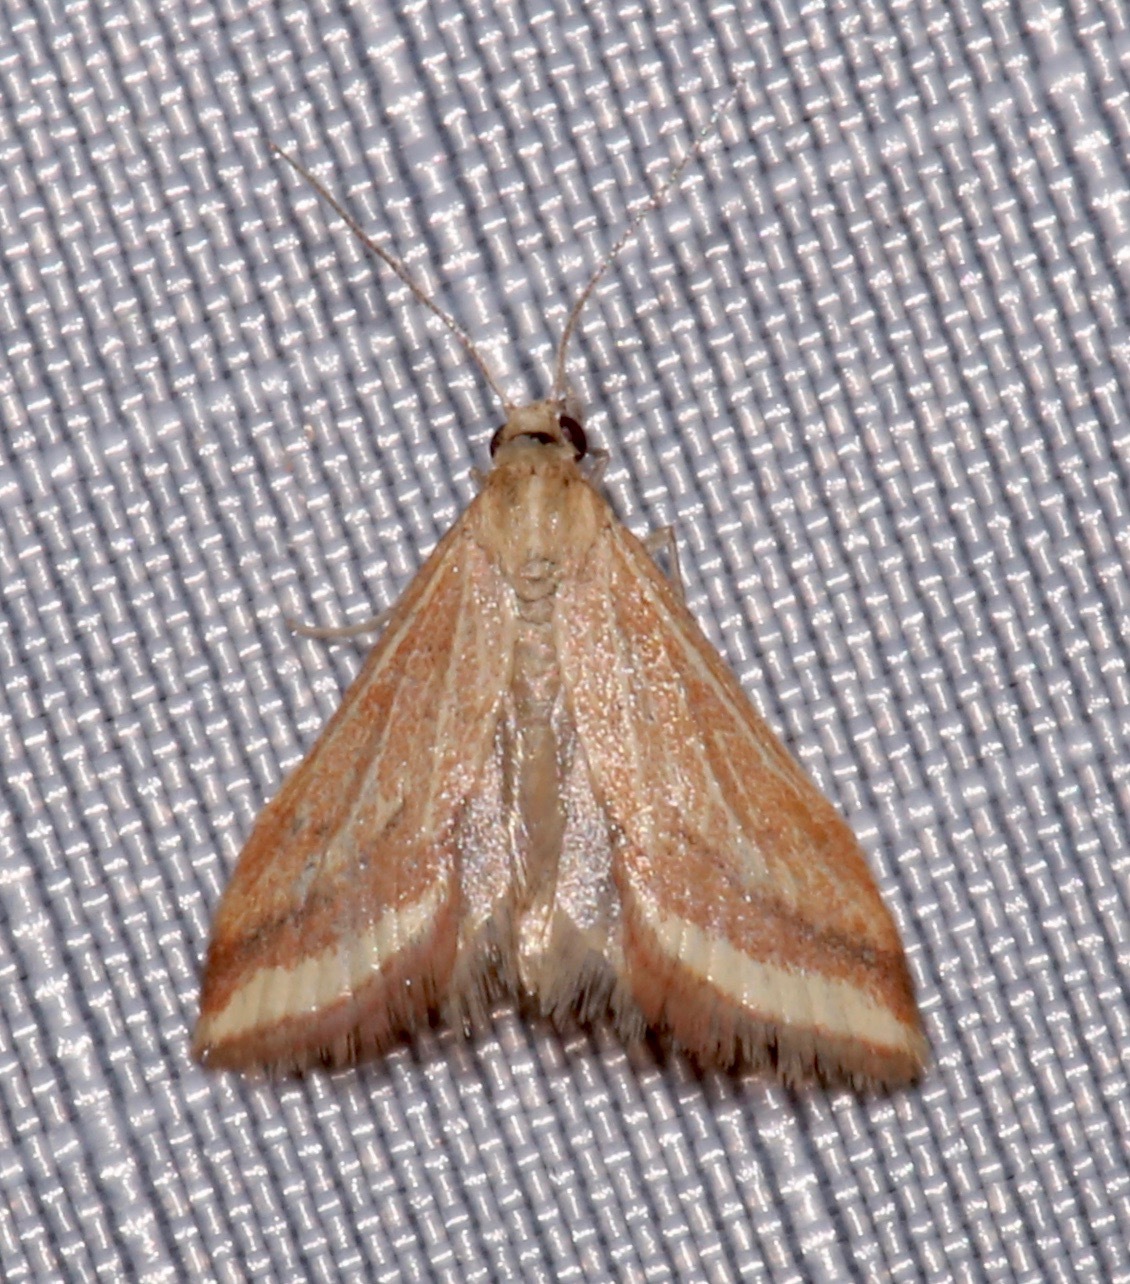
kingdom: Animalia
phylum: Arthropoda
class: Insecta
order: Lepidoptera
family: Crambidae
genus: Microtheoris
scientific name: Microtheoris ophionalis
